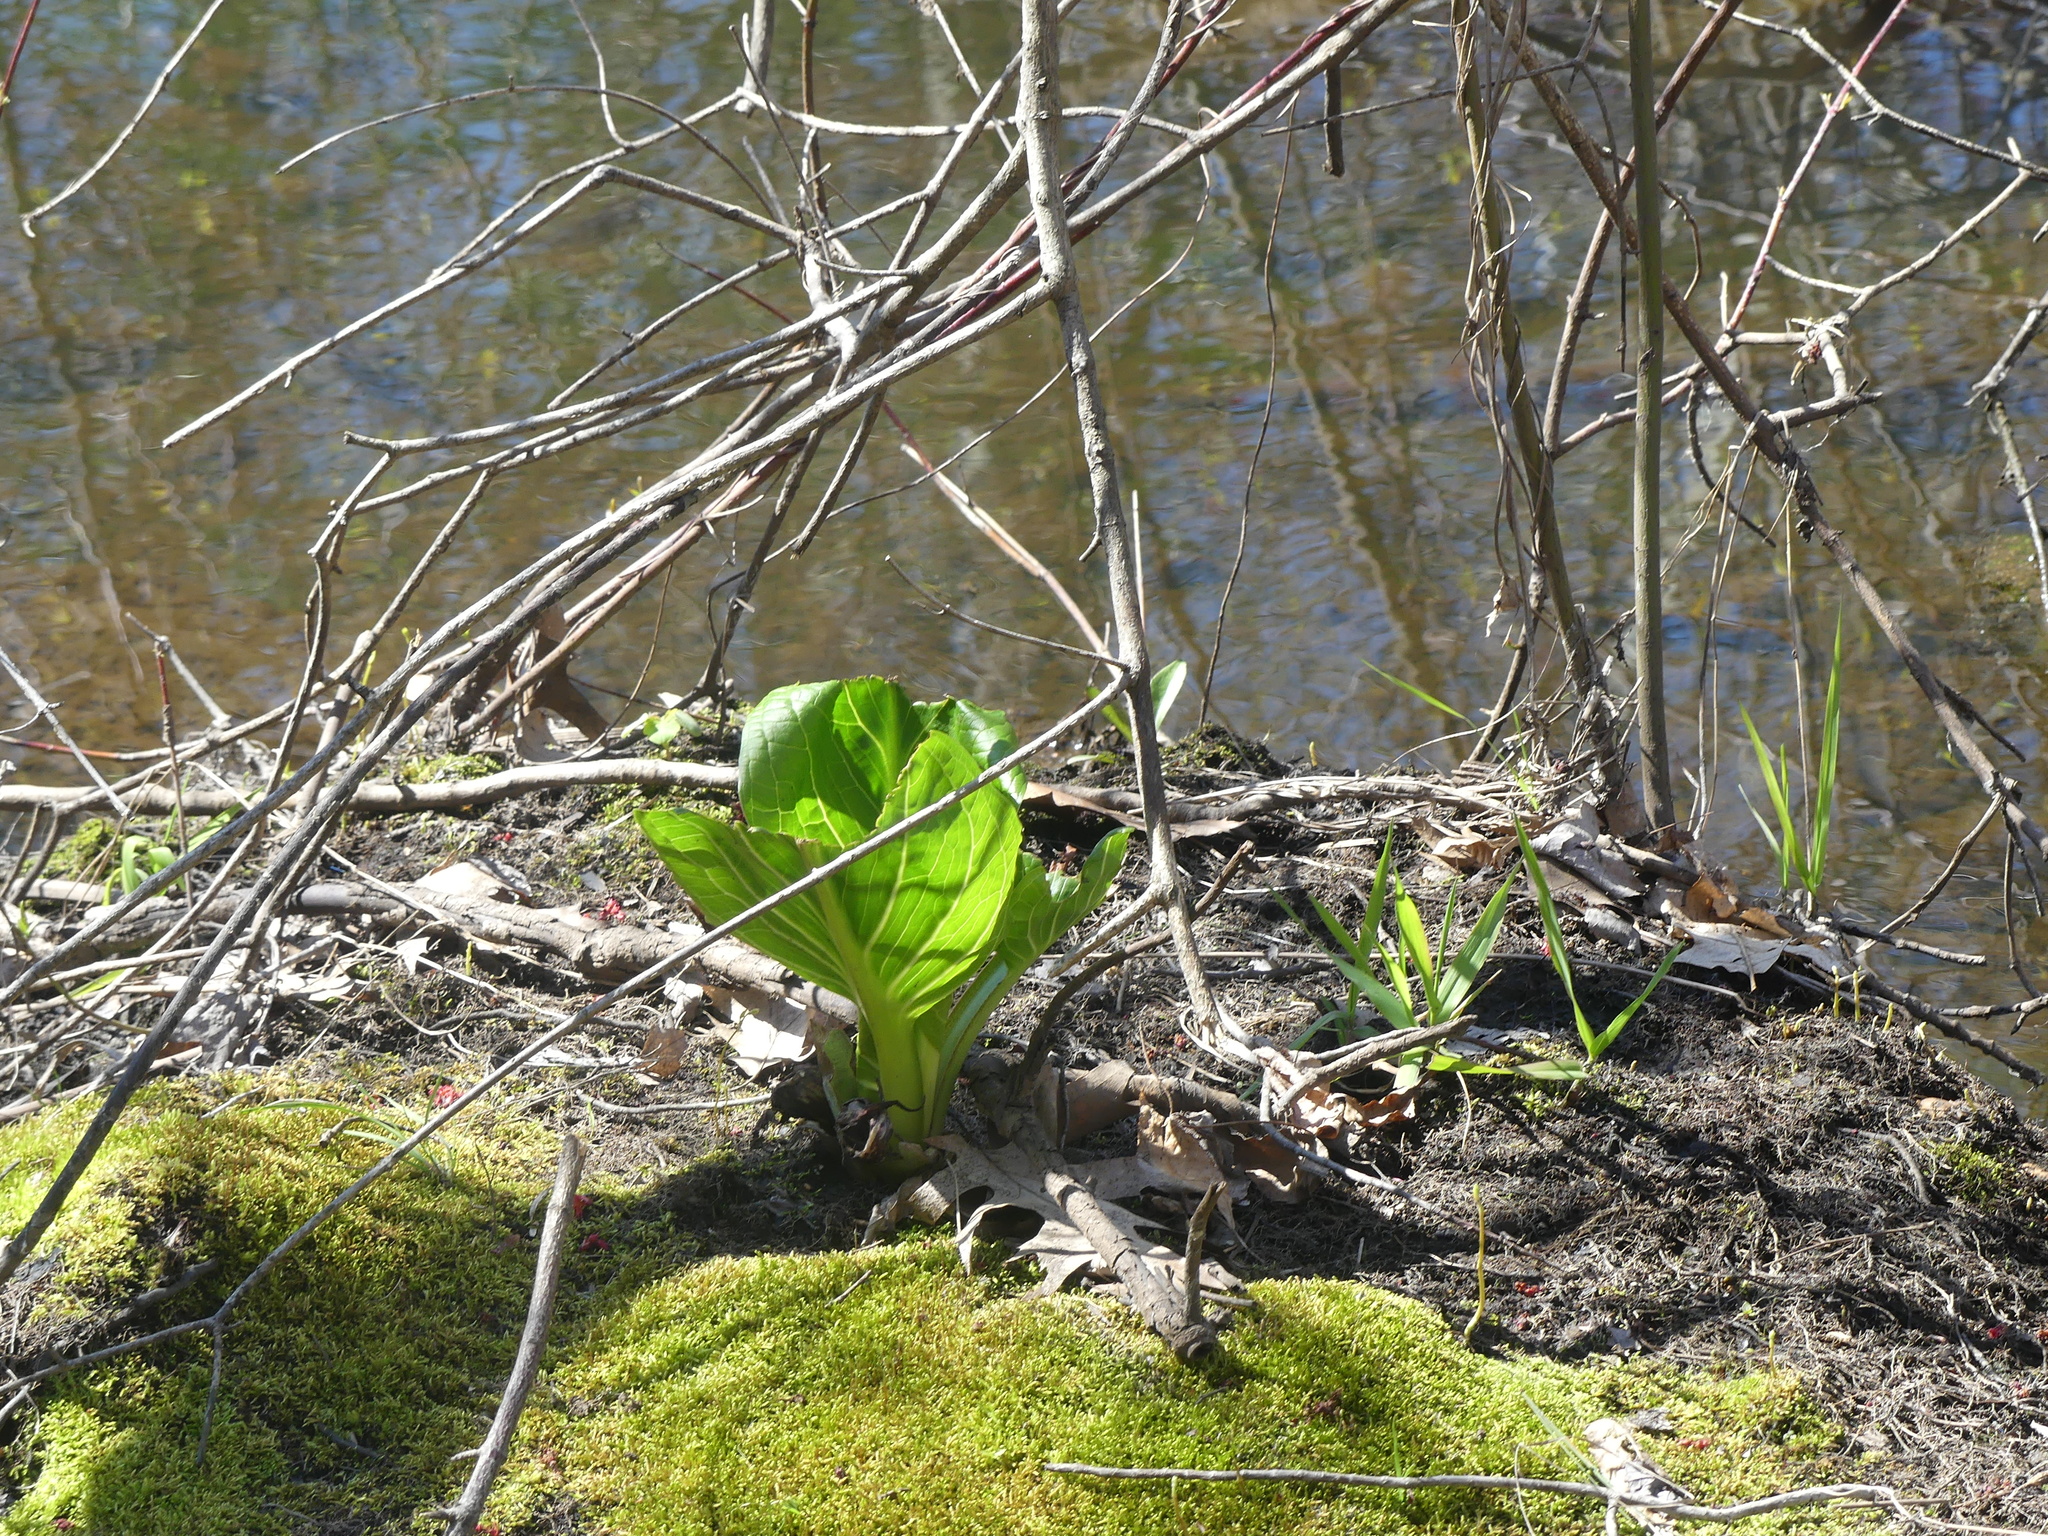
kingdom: Plantae
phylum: Tracheophyta
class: Liliopsida
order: Alismatales
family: Araceae
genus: Symplocarpus
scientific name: Symplocarpus foetidus
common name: Eastern skunk cabbage
